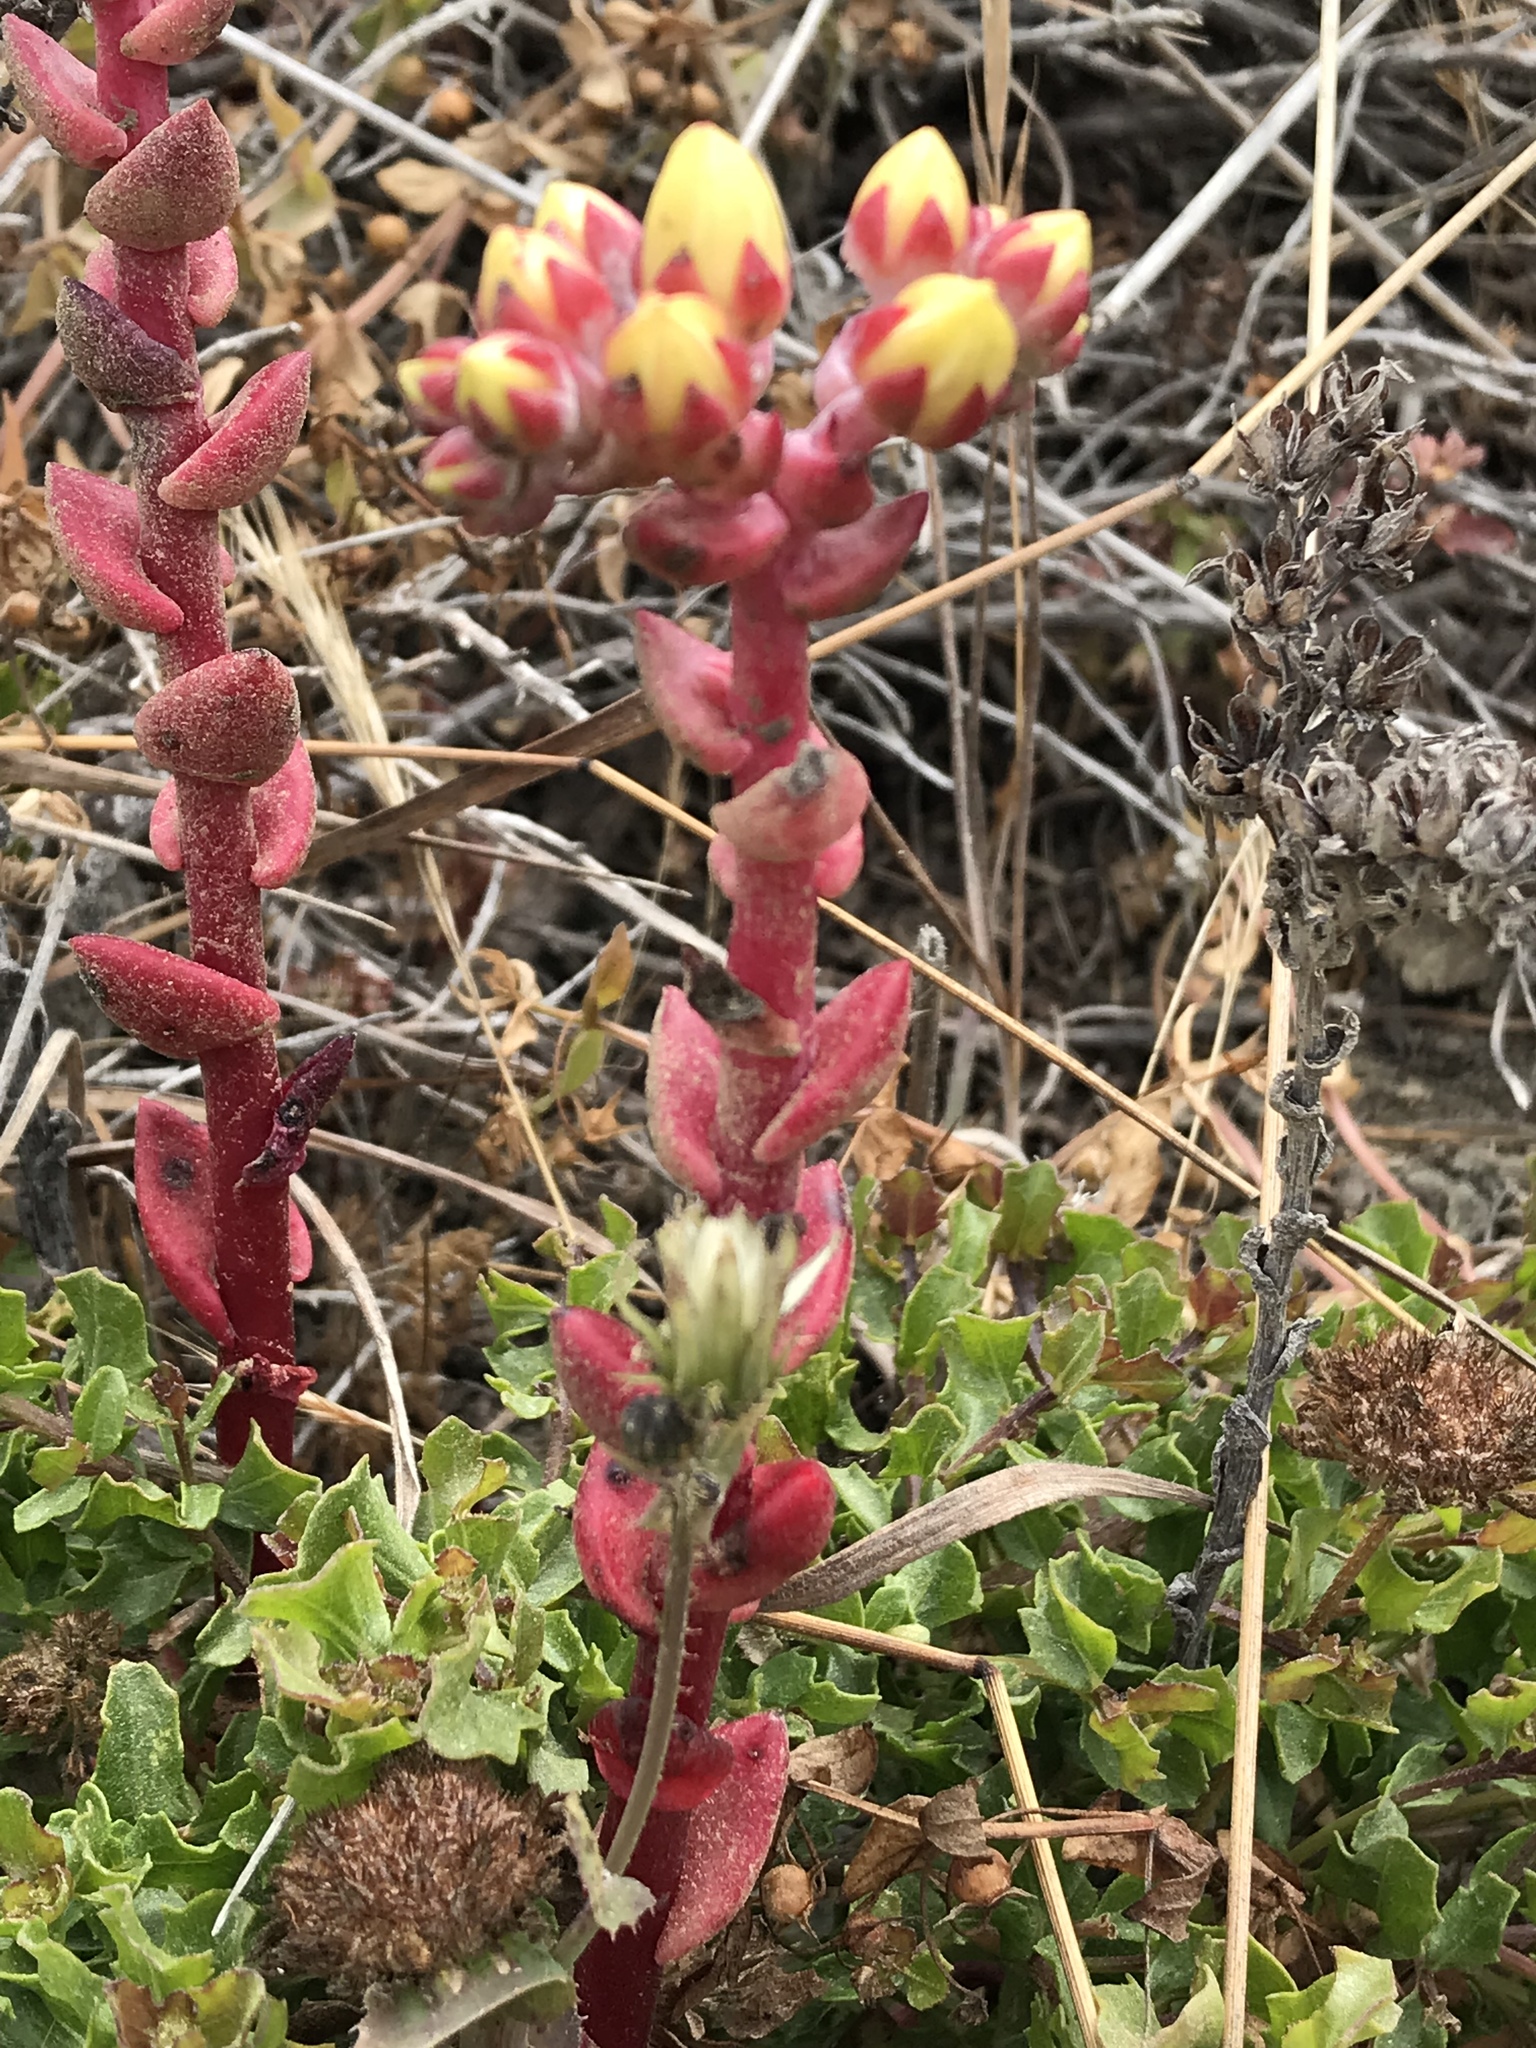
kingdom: Plantae
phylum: Tracheophyta
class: Magnoliopsida
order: Saxifragales
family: Crassulaceae
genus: Dudleya
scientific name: Dudleya farinosa
